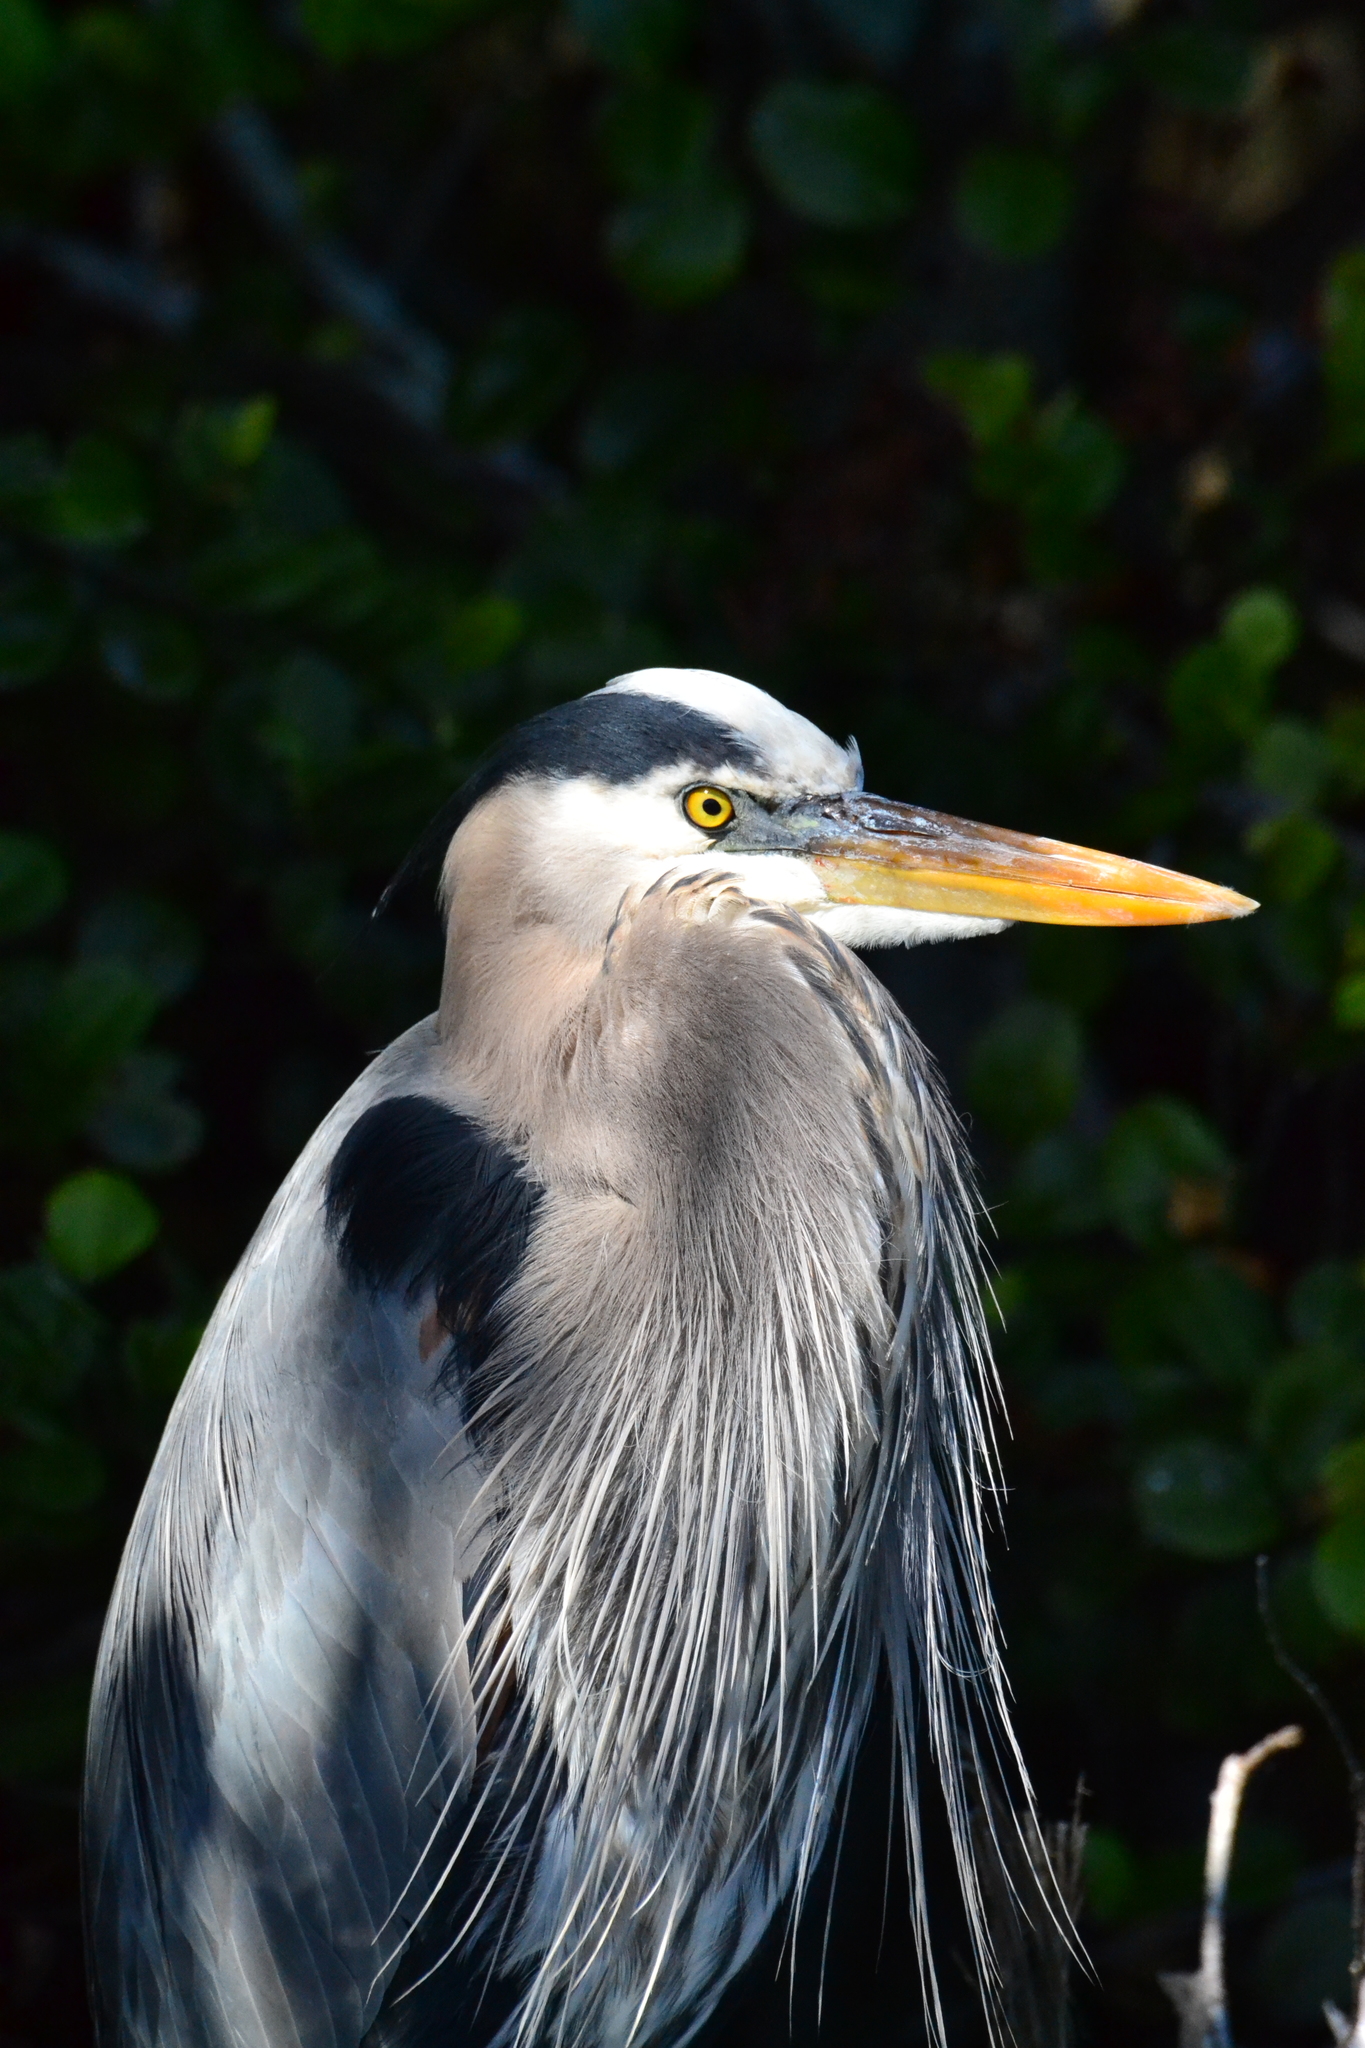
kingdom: Animalia
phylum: Chordata
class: Aves
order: Pelecaniformes
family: Ardeidae
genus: Ardea
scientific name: Ardea herodias
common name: Great blue heron
